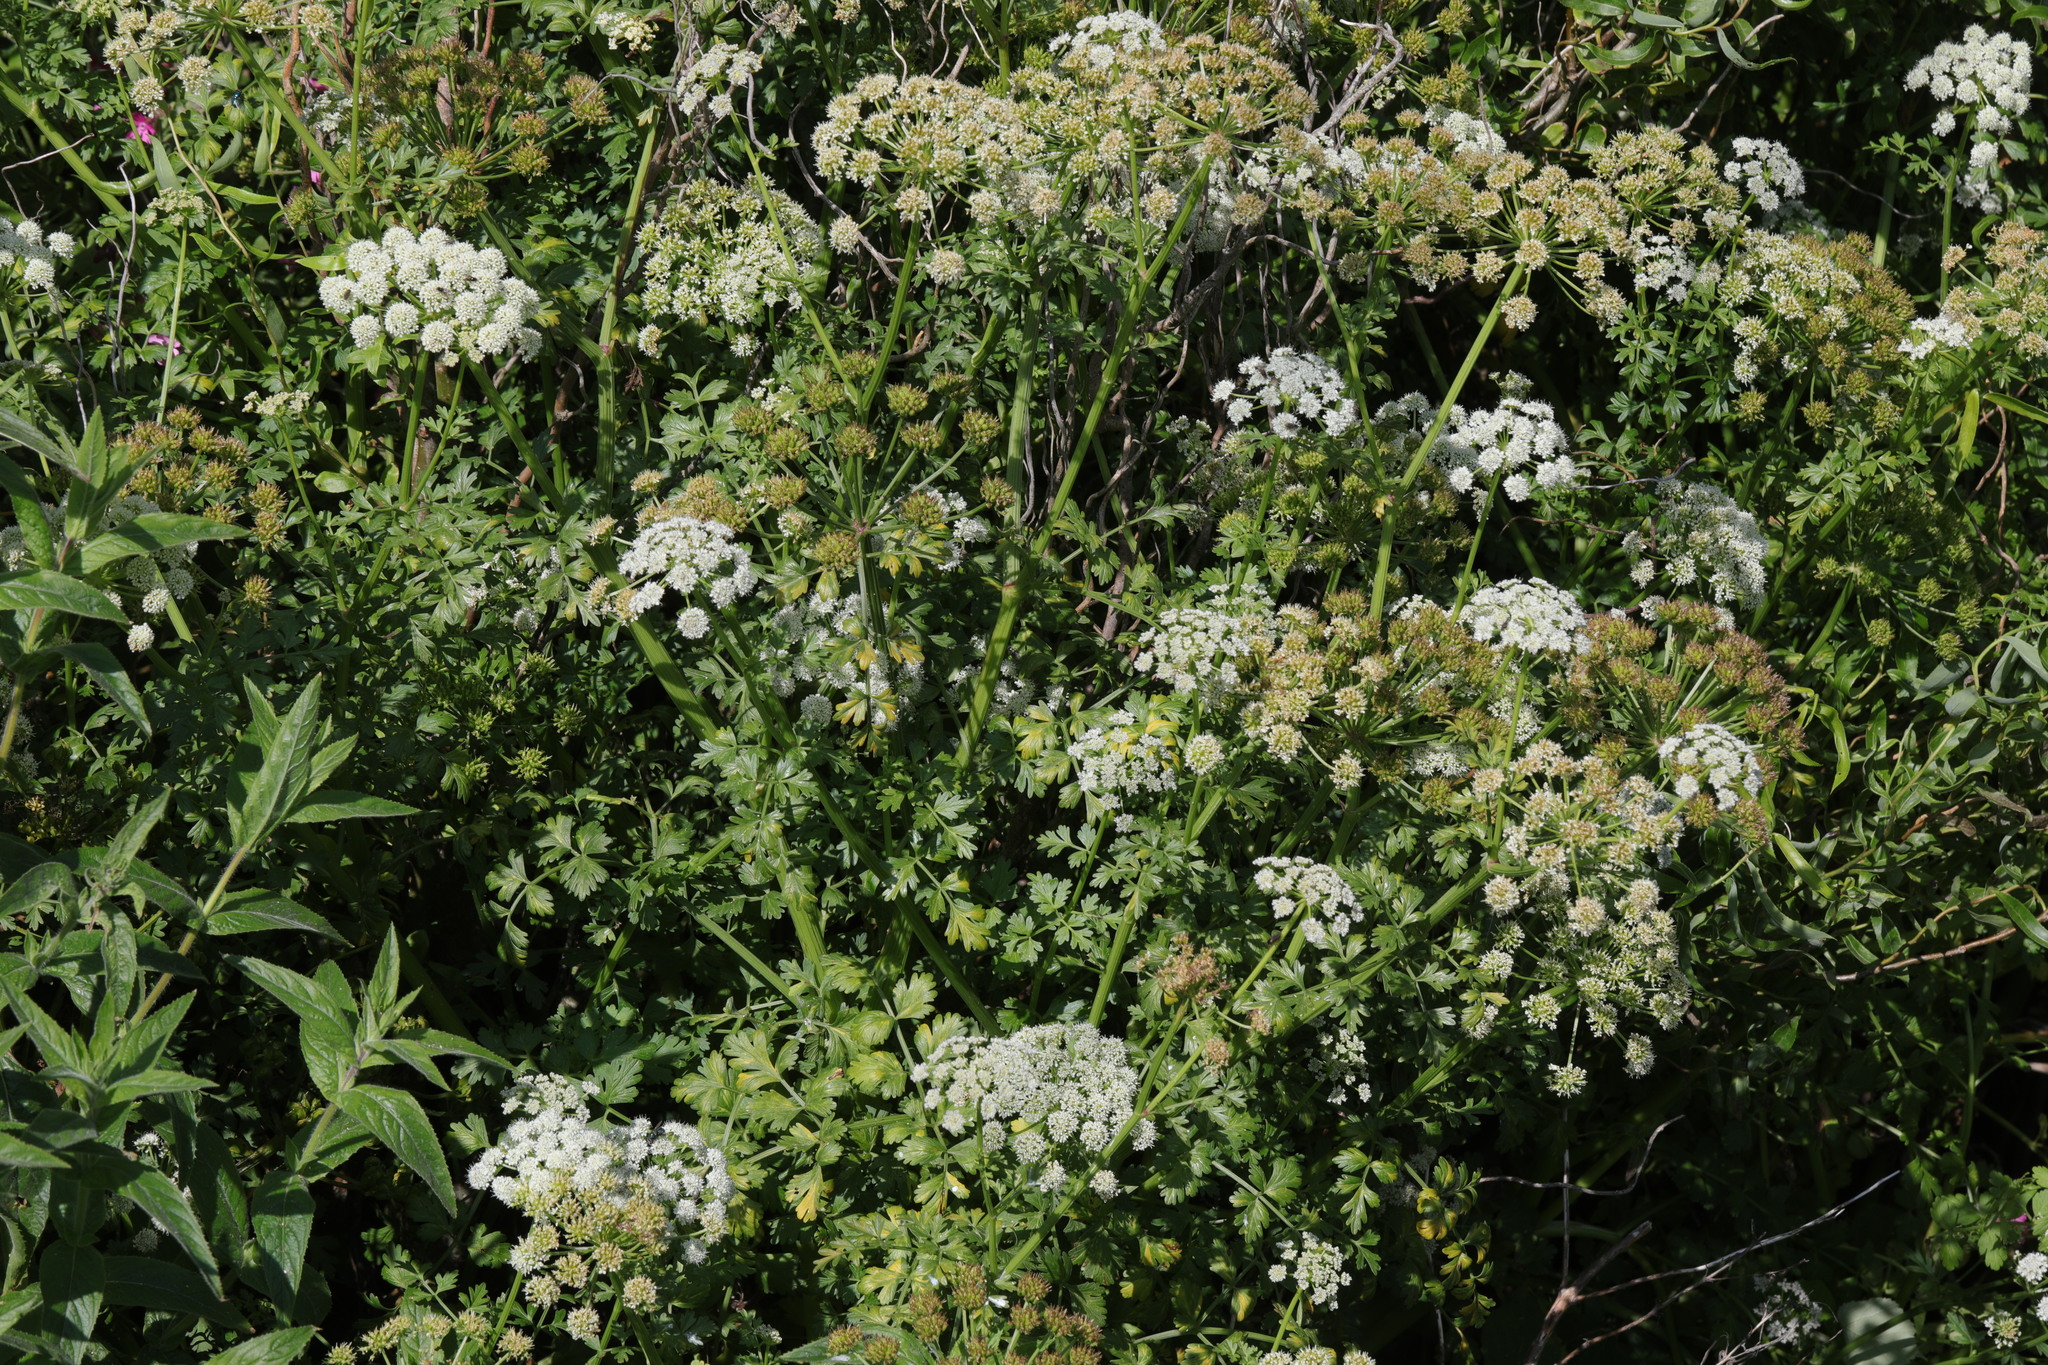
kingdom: Plantae
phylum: Tracheophyta
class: Magnoliopsida
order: Apiales
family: Apiaceae
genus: Oenanthe
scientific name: Oenanthe crocata
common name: Hemlock water-dropwort
